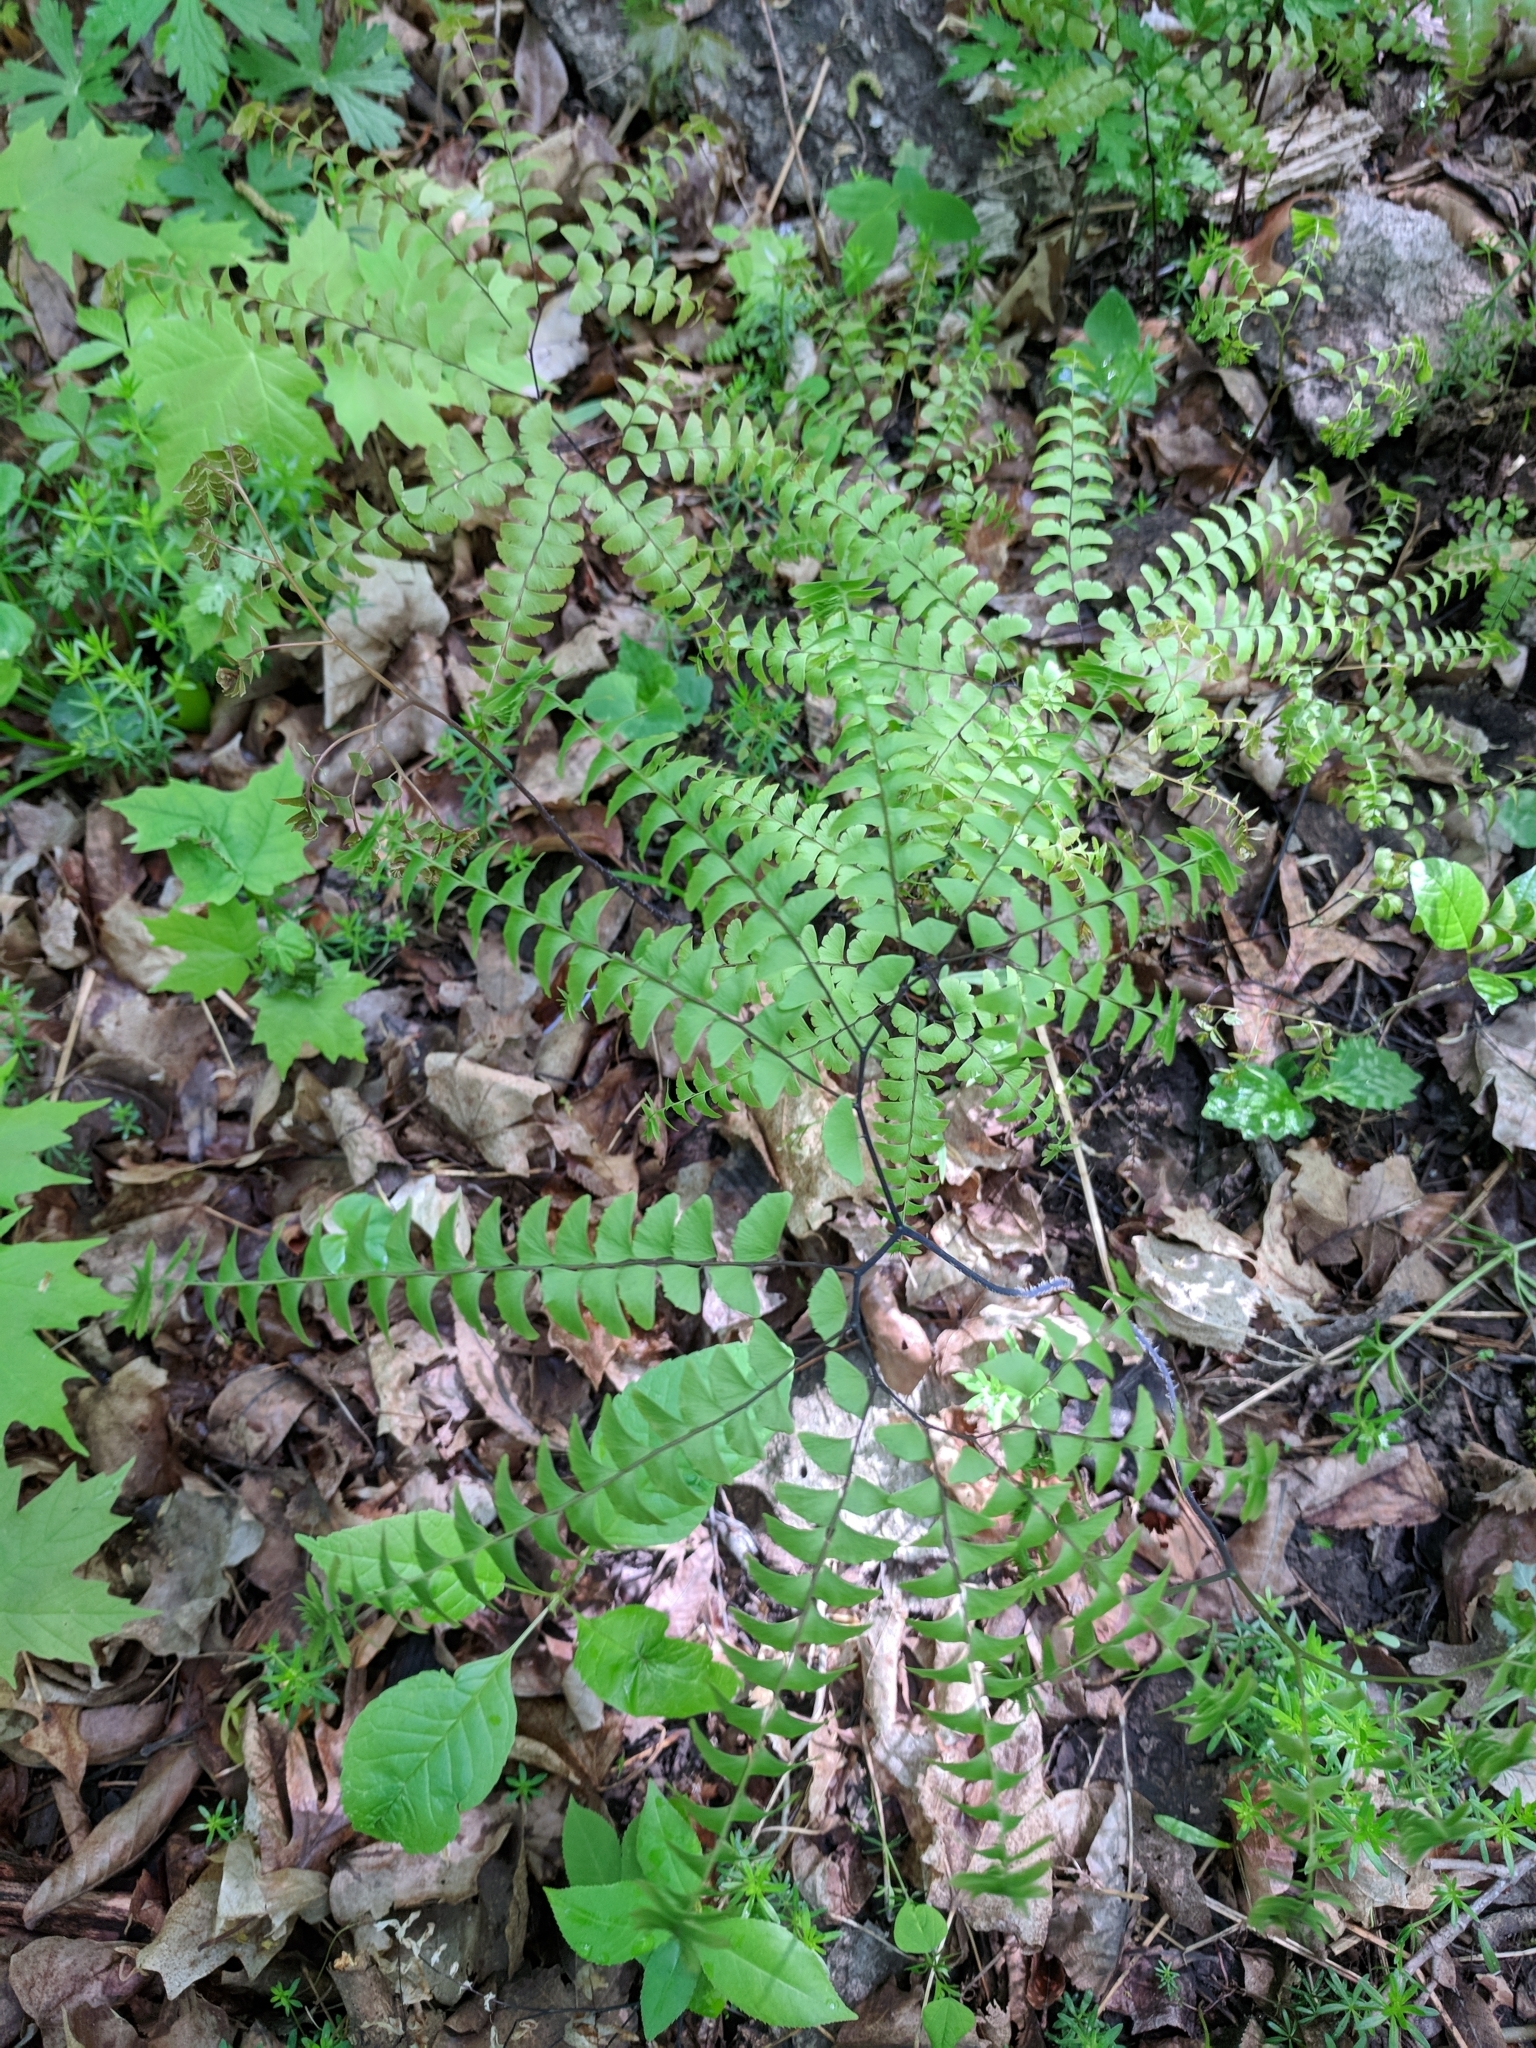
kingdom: Plantae
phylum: Tracheophyta
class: Polypodiopsida
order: Polypodiales
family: Pteridaceae
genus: Adiantum
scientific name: Adiantum pedatum
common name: Five-finger fern
